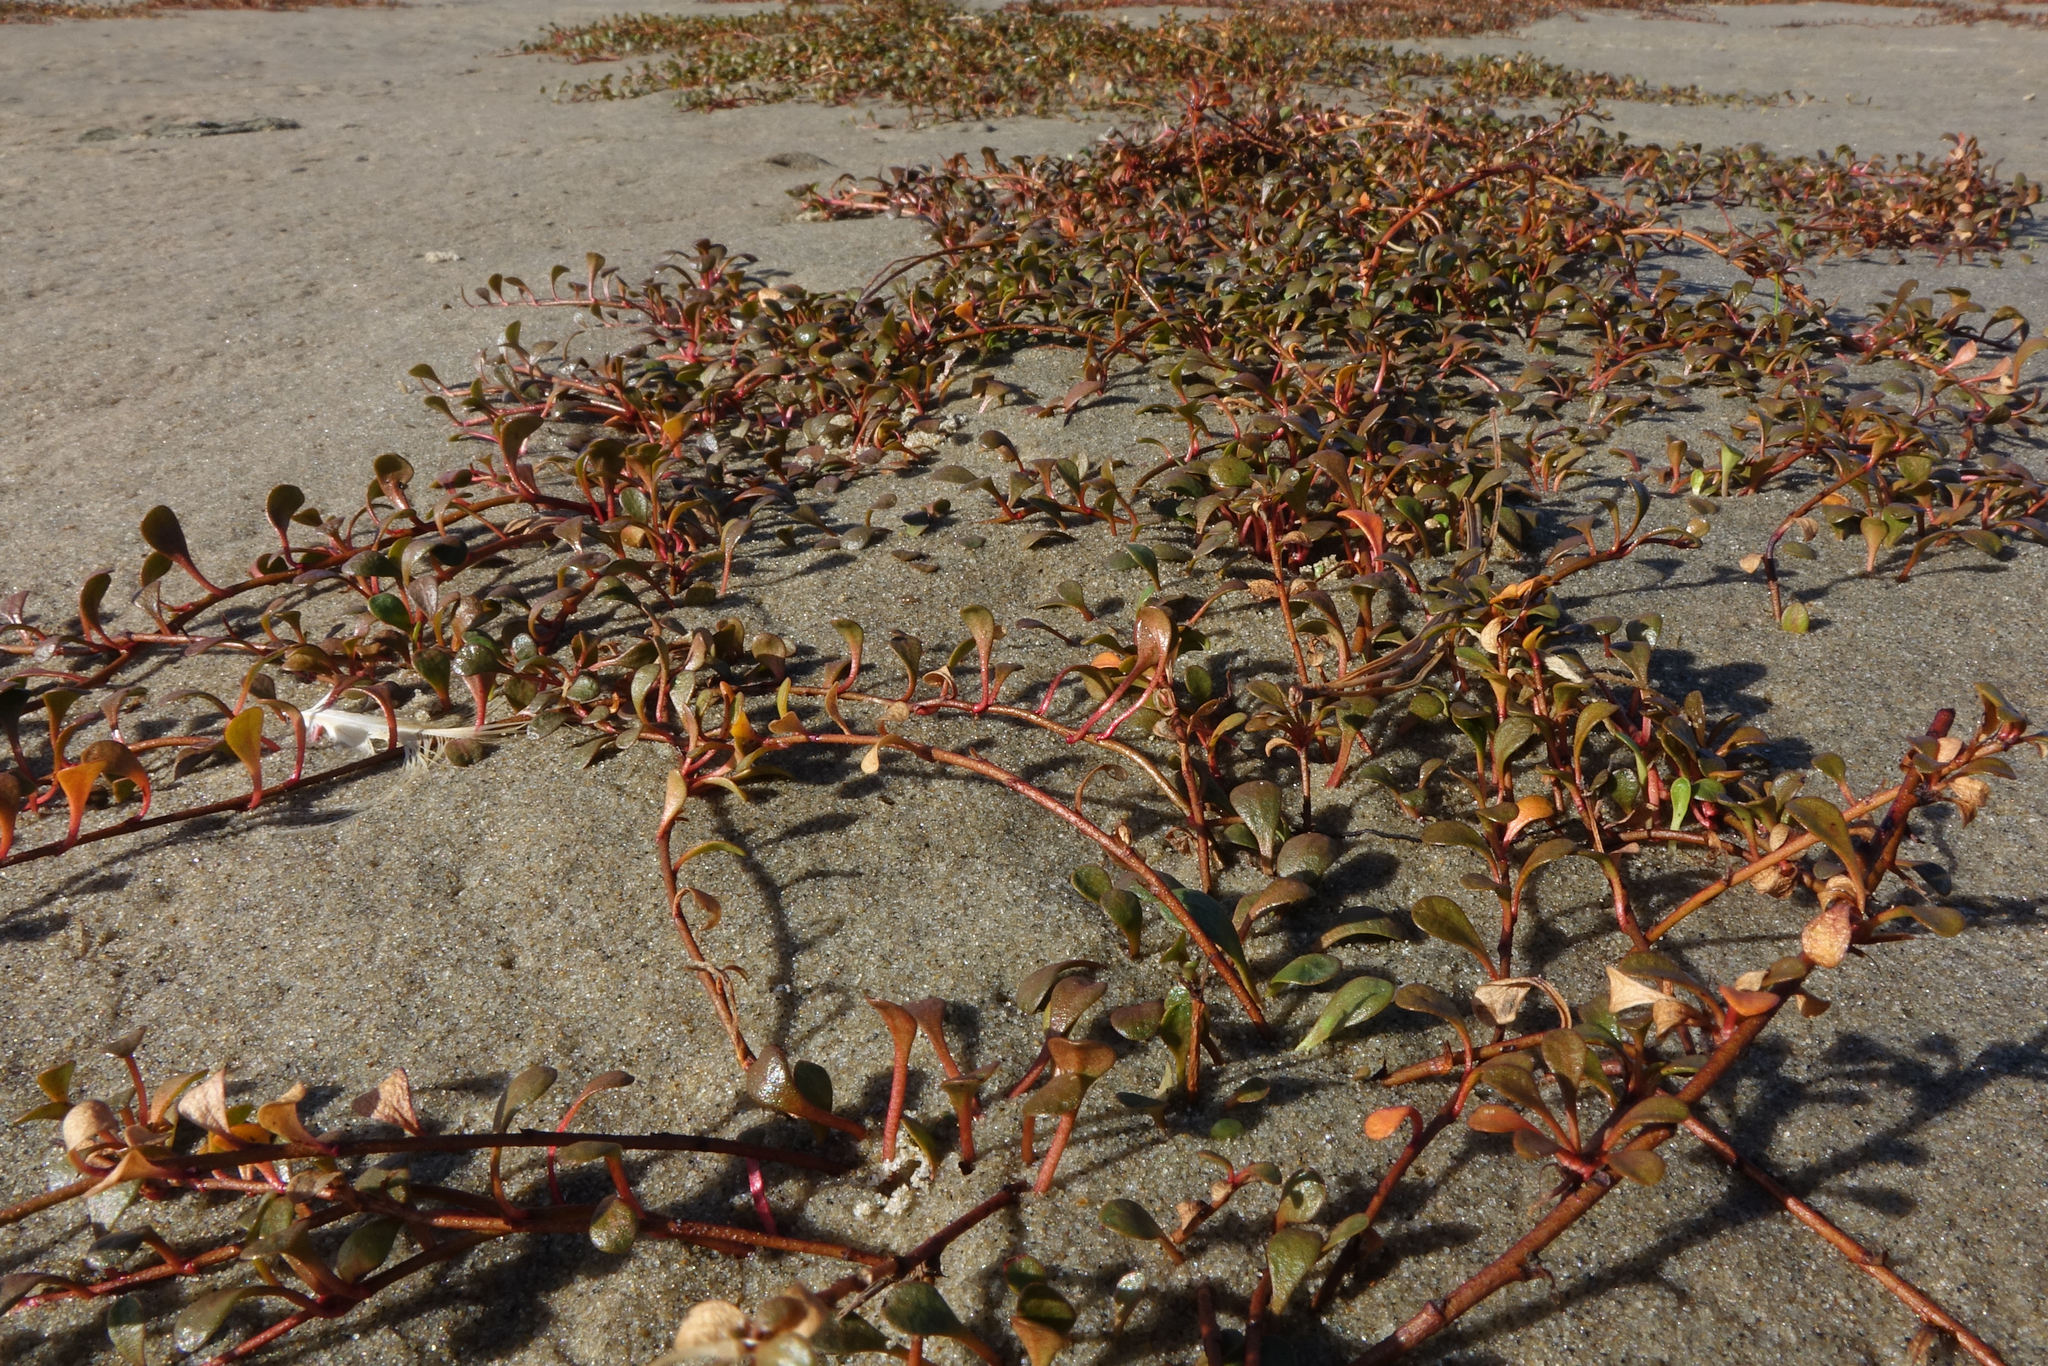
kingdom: Plantae
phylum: Tracheophyta
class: Magnoliopsida
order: Ericales
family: Primulaceae
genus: Samolus
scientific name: Samolus repens
